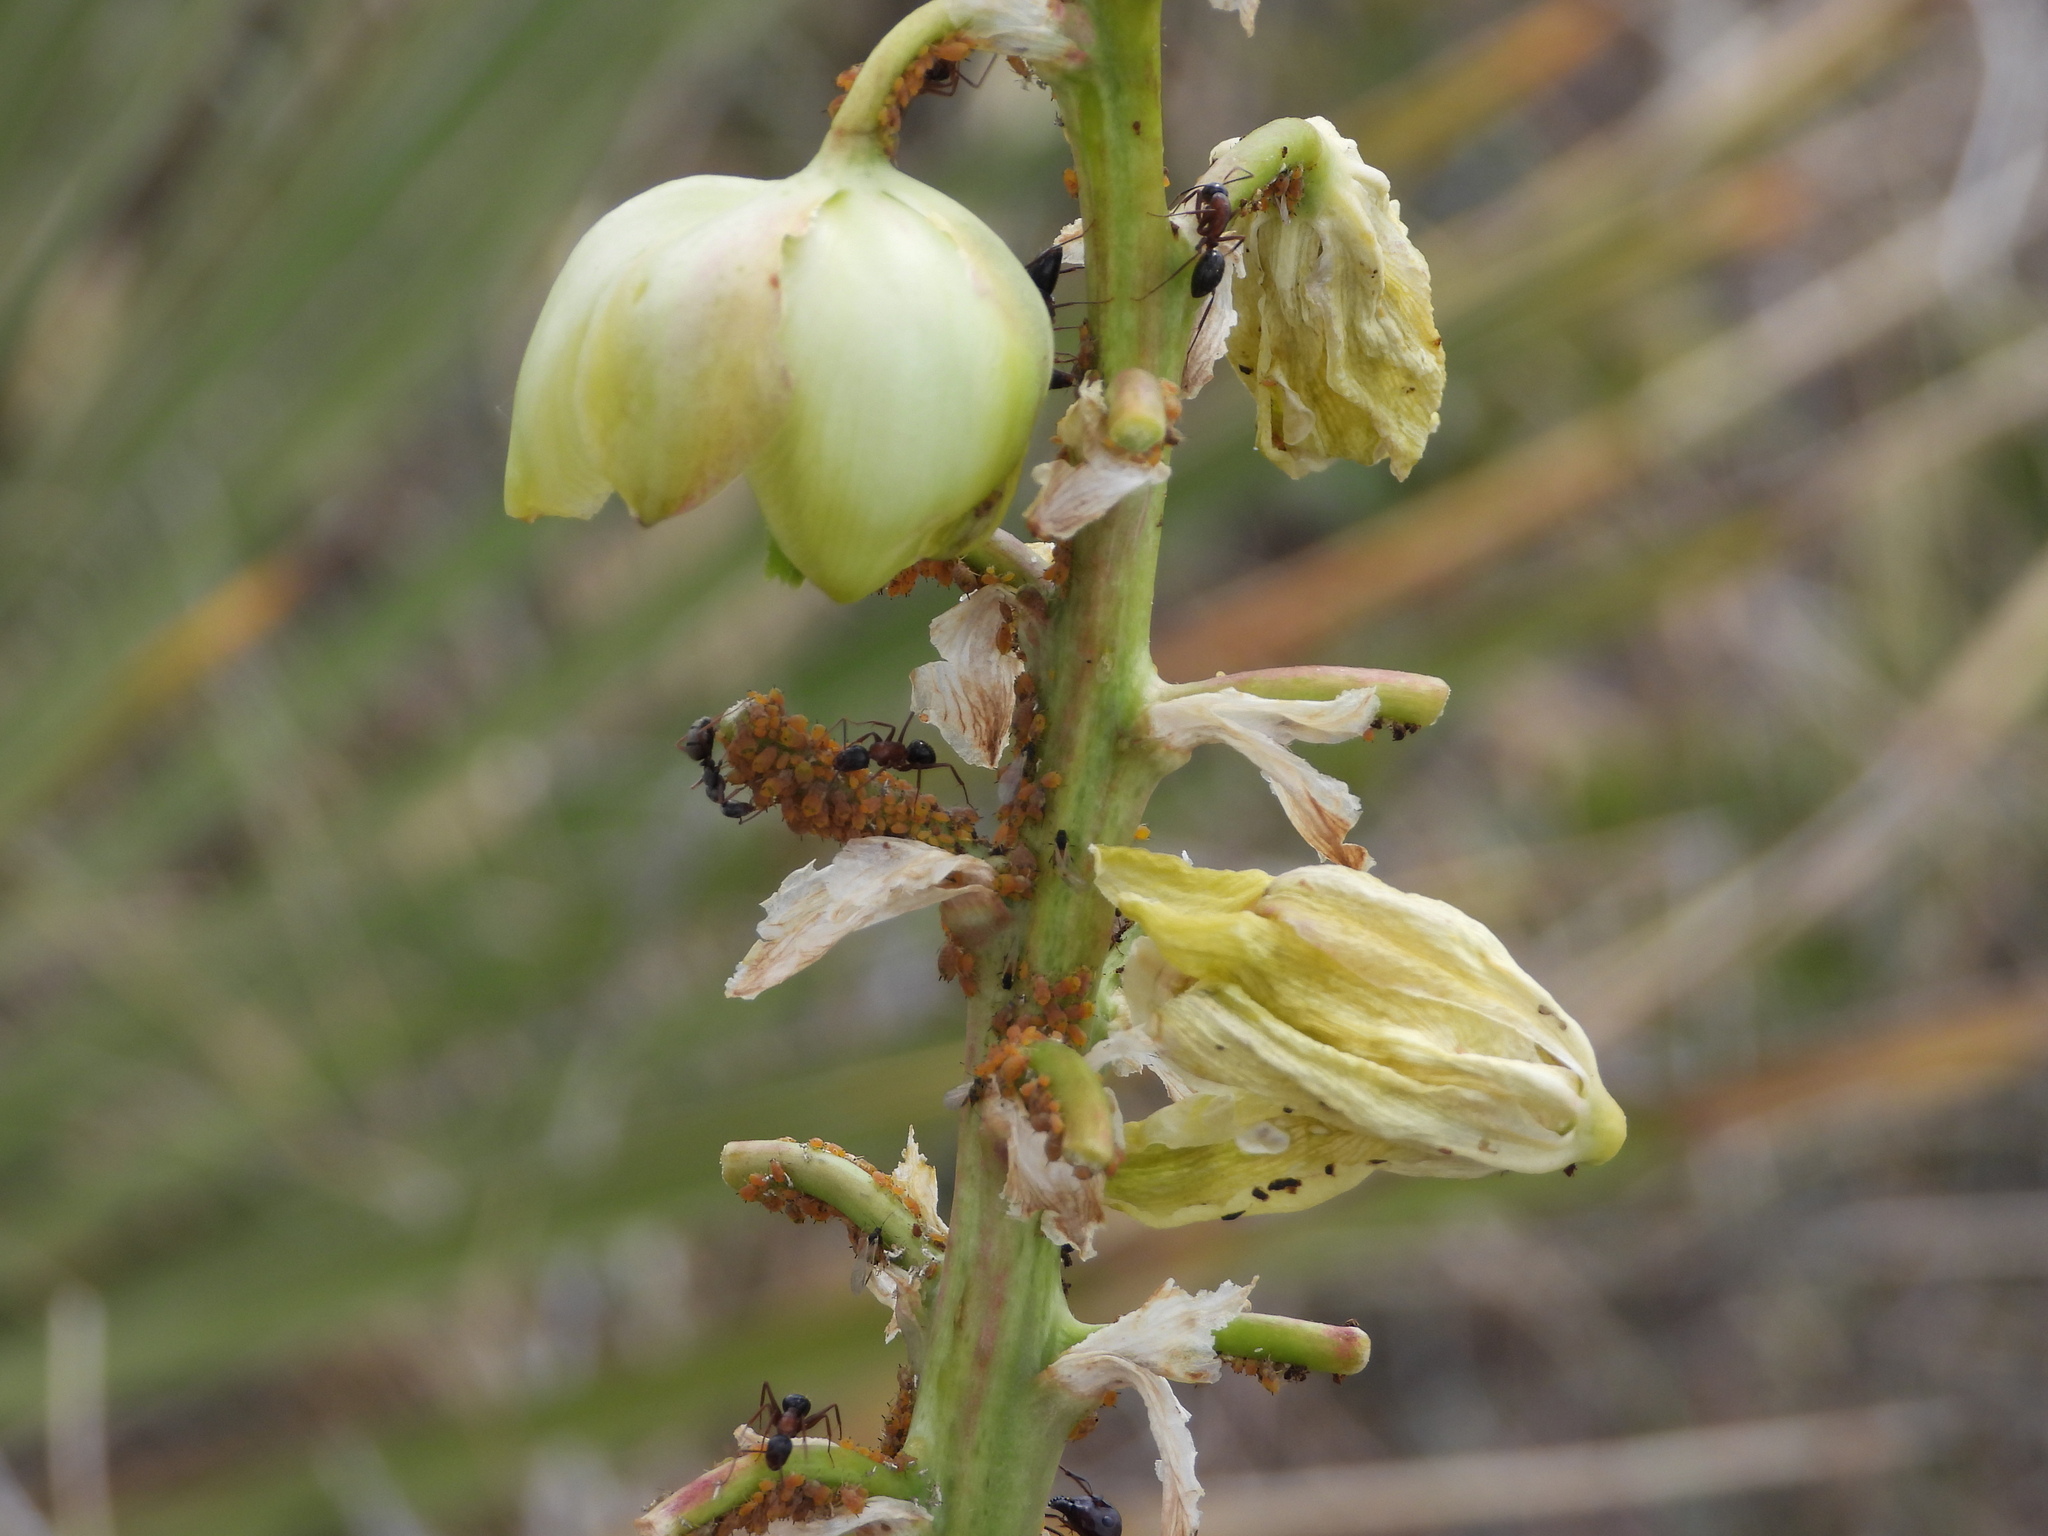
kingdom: Animalia
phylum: Arthropoda
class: Insecta
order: Hemiptera
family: Aphididae
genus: Aphis
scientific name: Aphis asclepiadis
